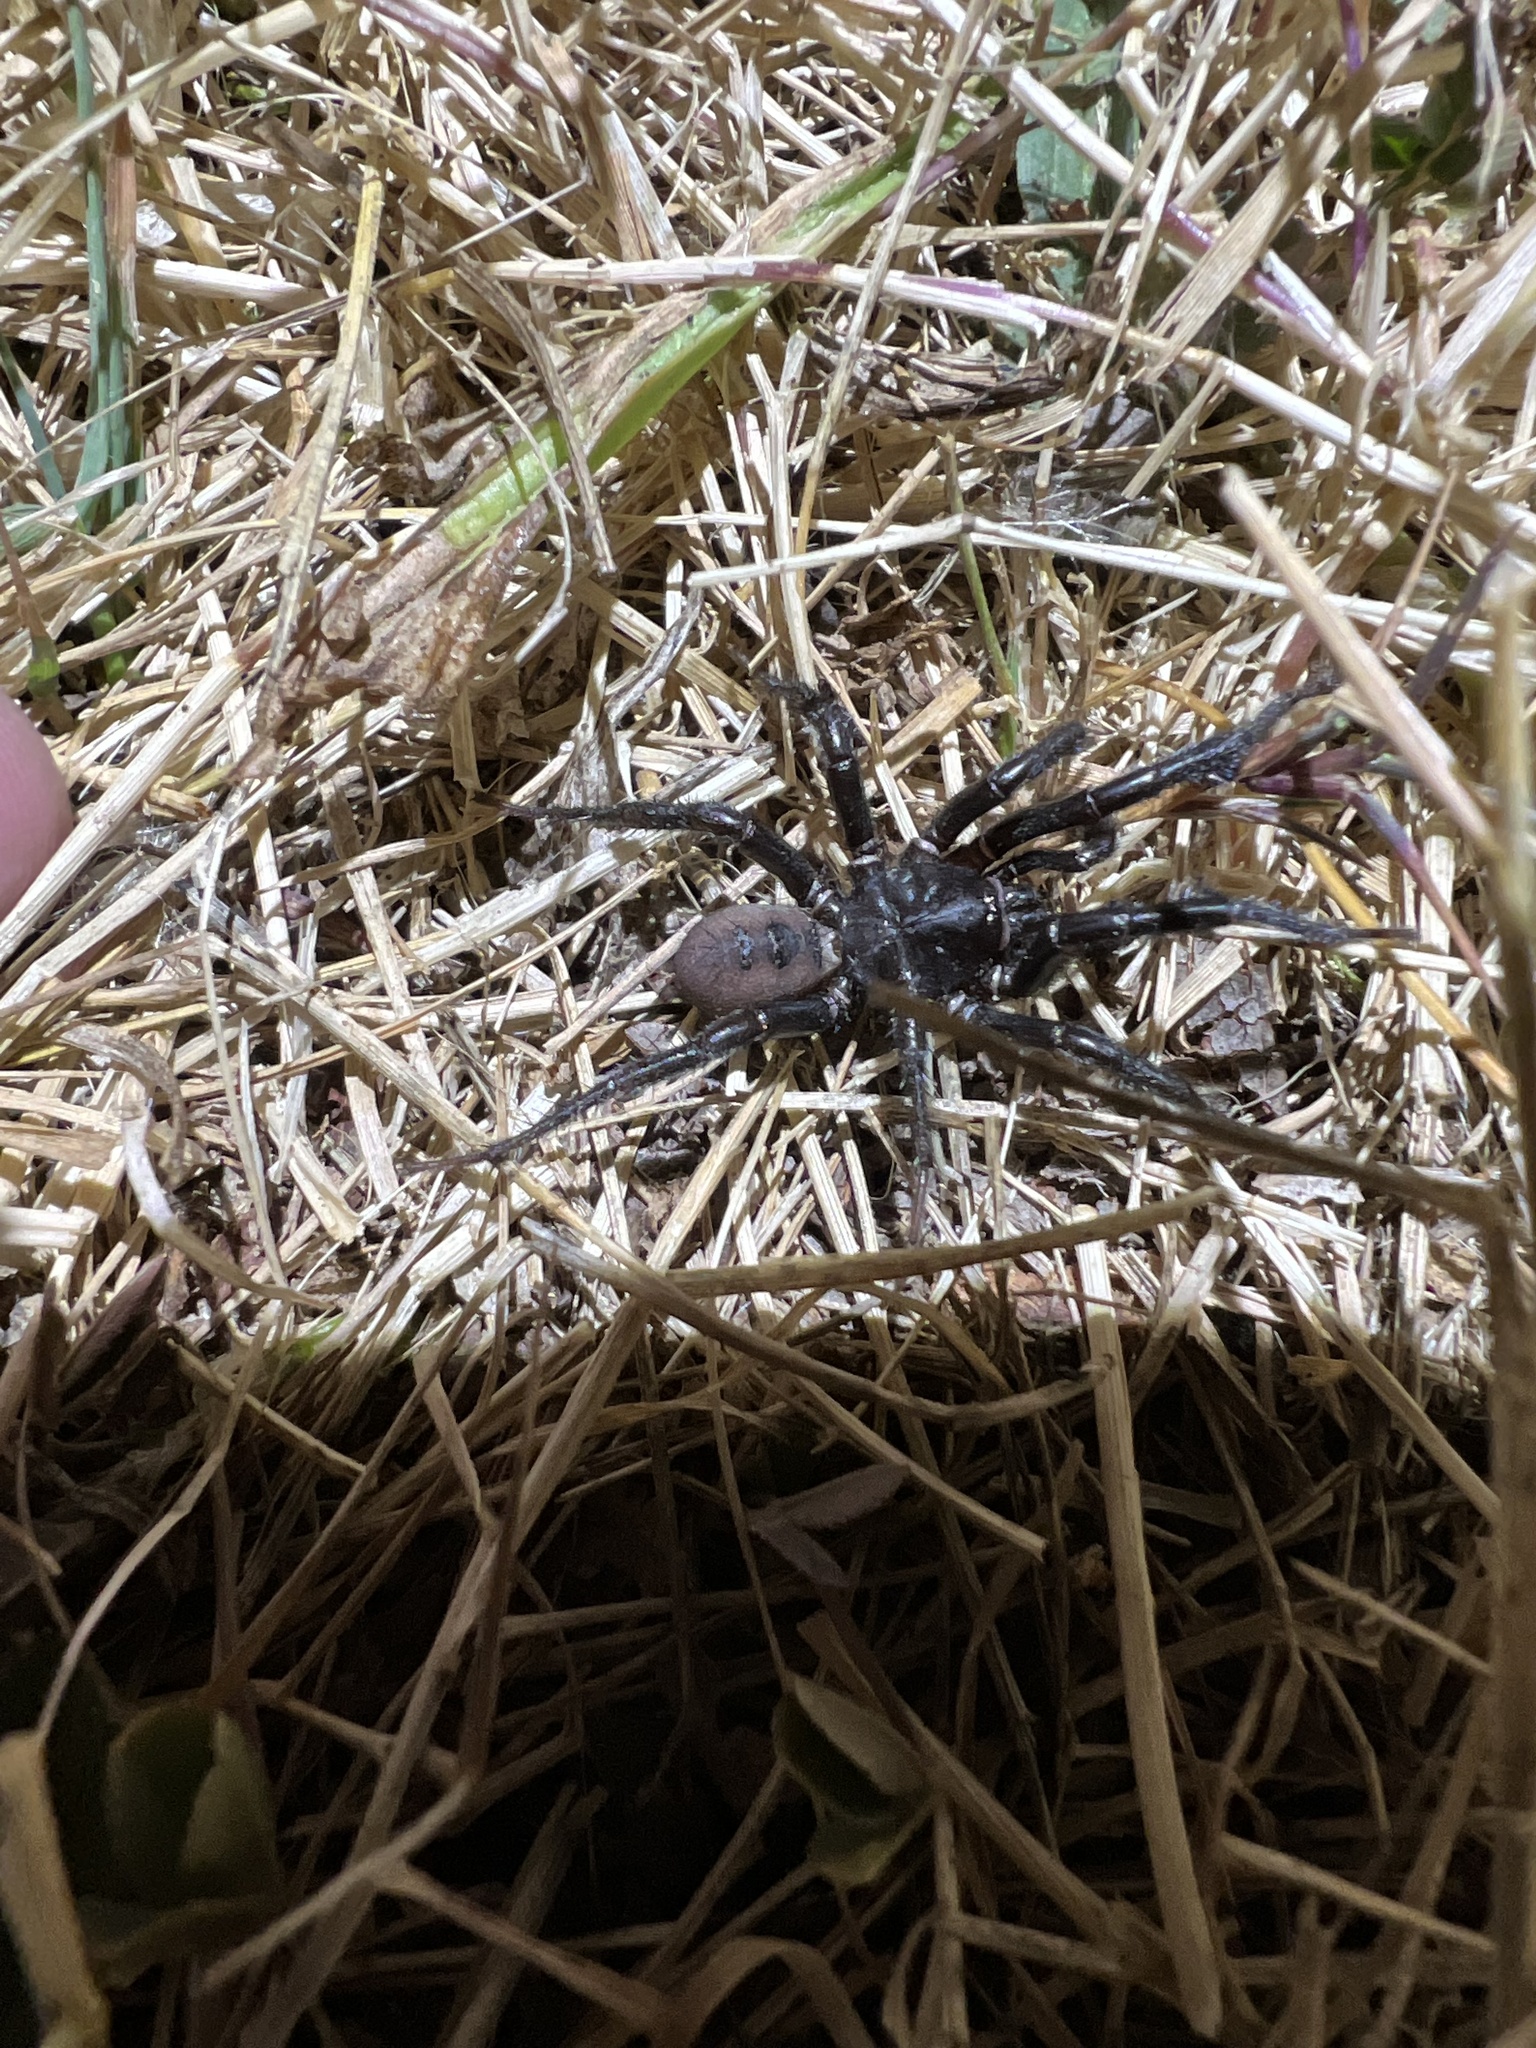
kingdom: Animalia
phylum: Arthropoda
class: Arachnida
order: Araneae
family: Antrodiaetidae
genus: Antrodiaetus
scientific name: Antrodiaetus pacificus
